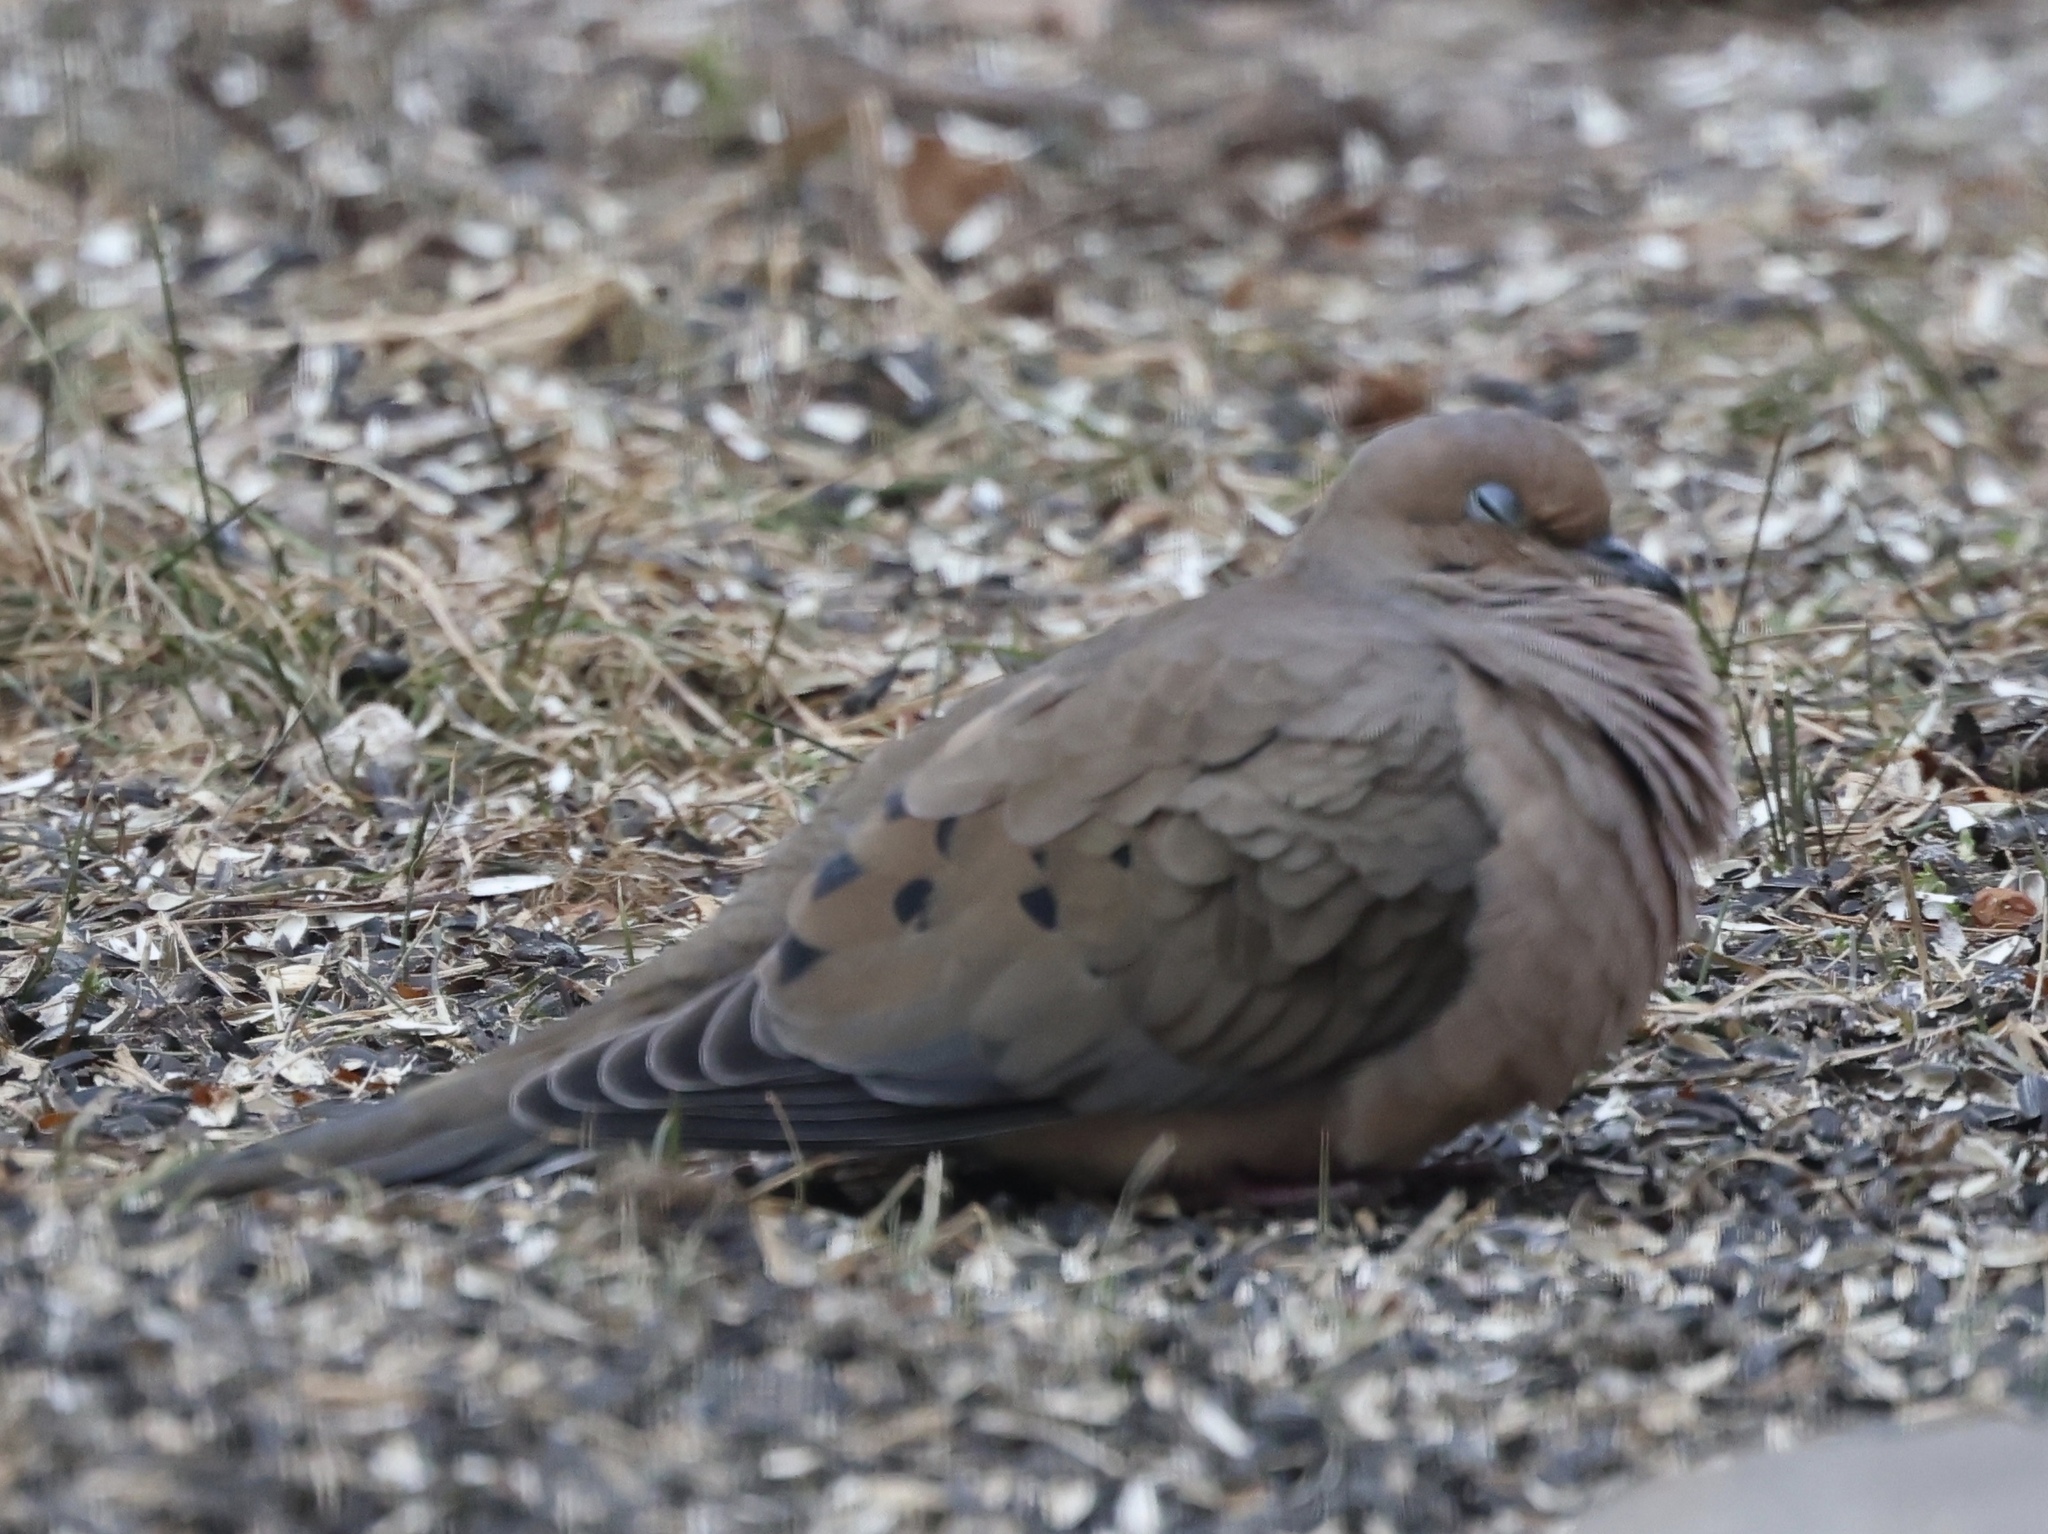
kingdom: Animalia
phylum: Chordata
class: Aves
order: Columbiformes
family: Columbidae
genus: Zenaida
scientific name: Zenaida macroura
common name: Mourning dove
